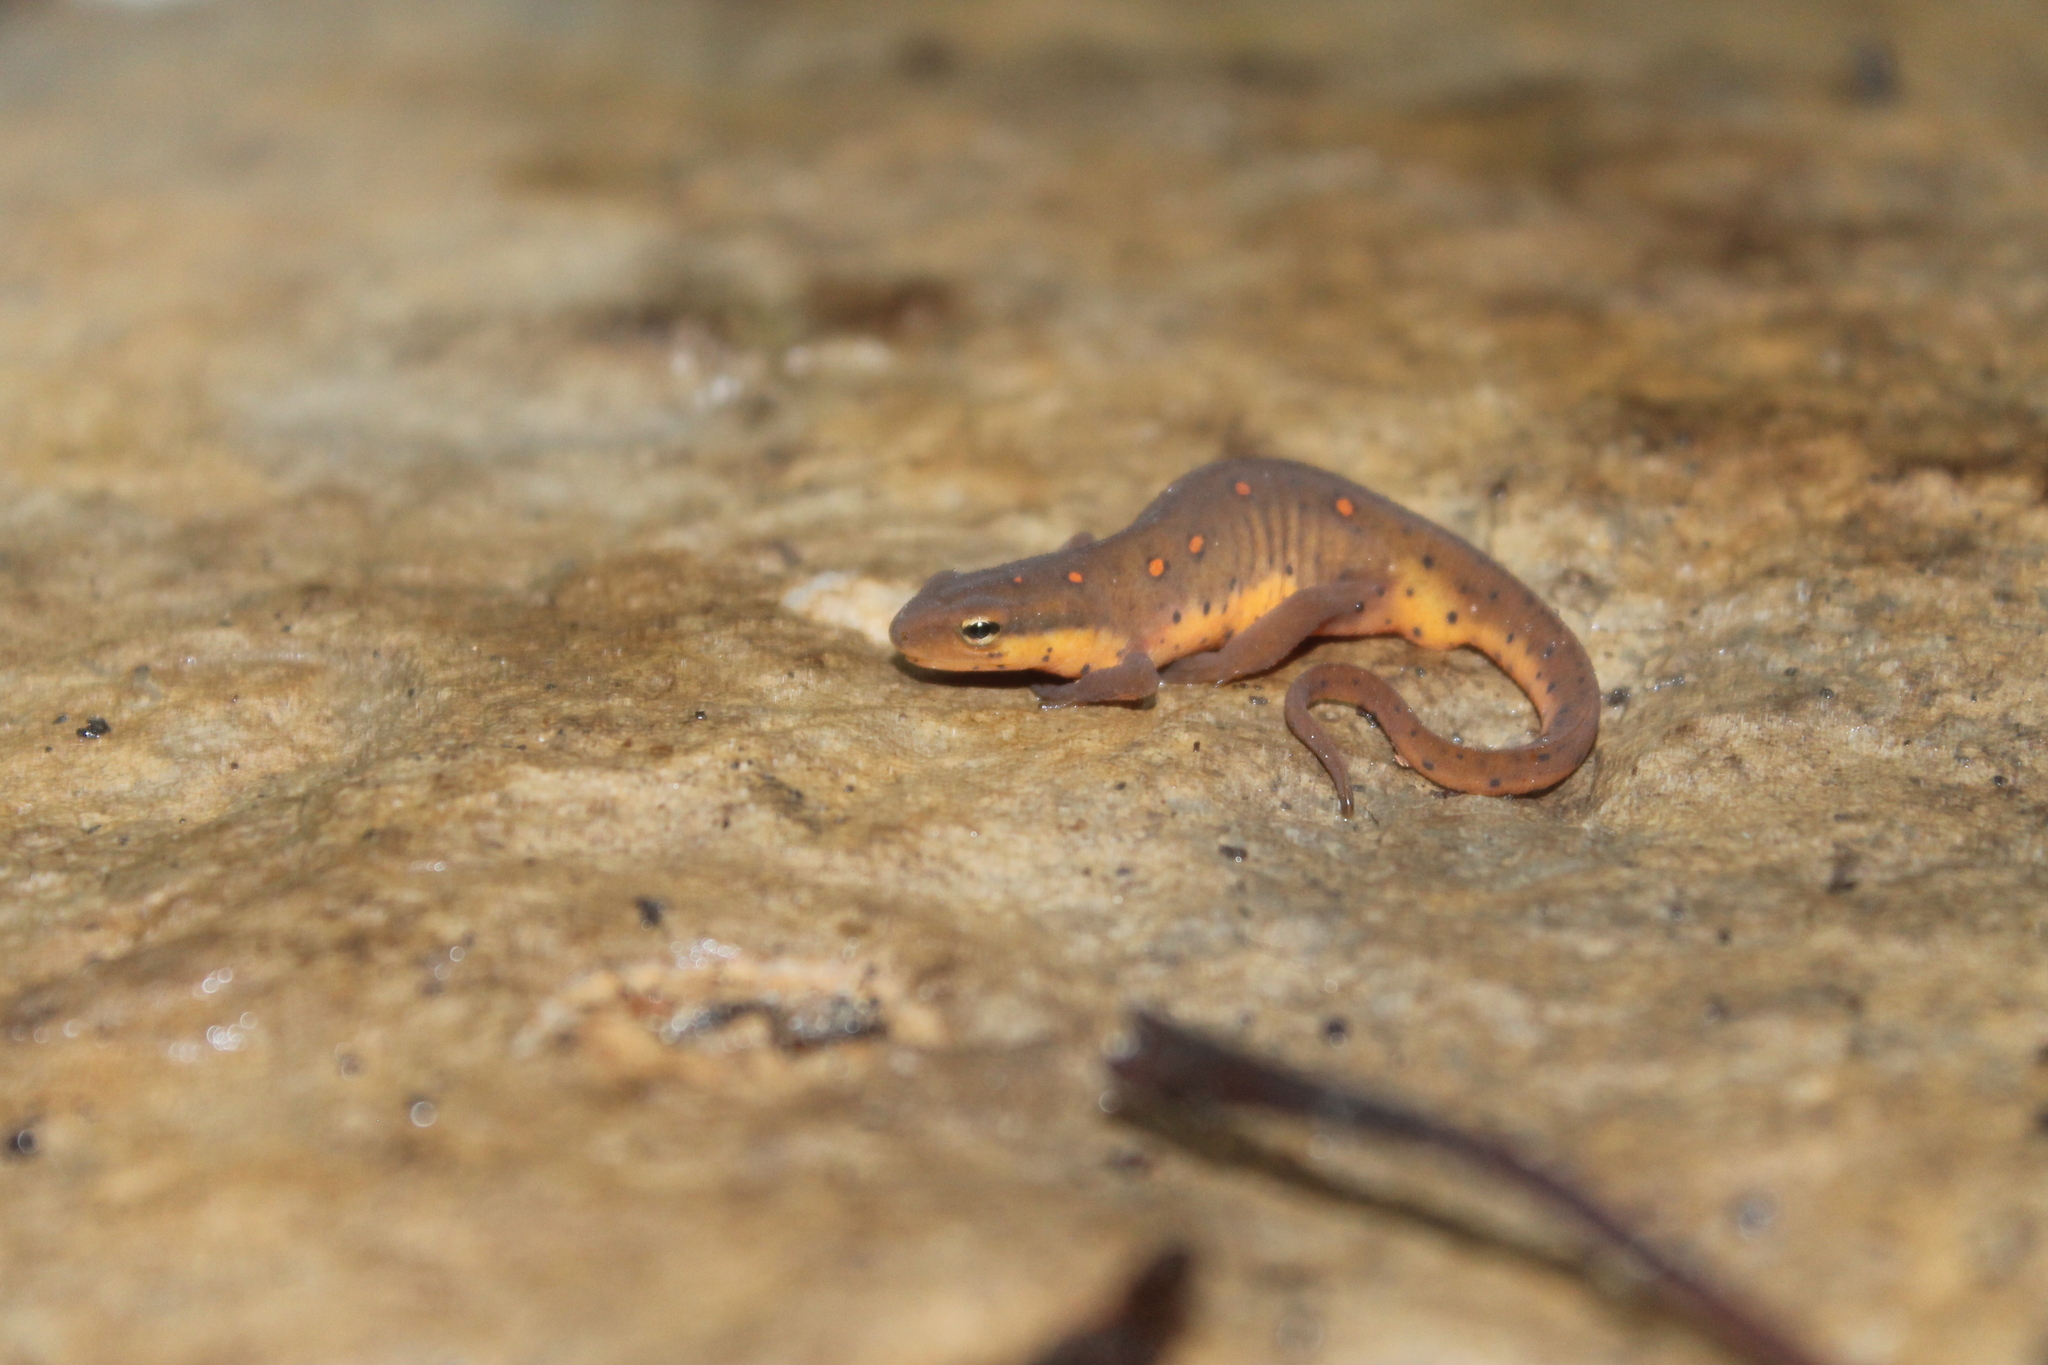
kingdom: Animalia
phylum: Chordata
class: Amphibia
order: Caudata
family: Salamandridae
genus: Notophthalmus
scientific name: Notophthalmus viridescens
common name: Eastern newt
